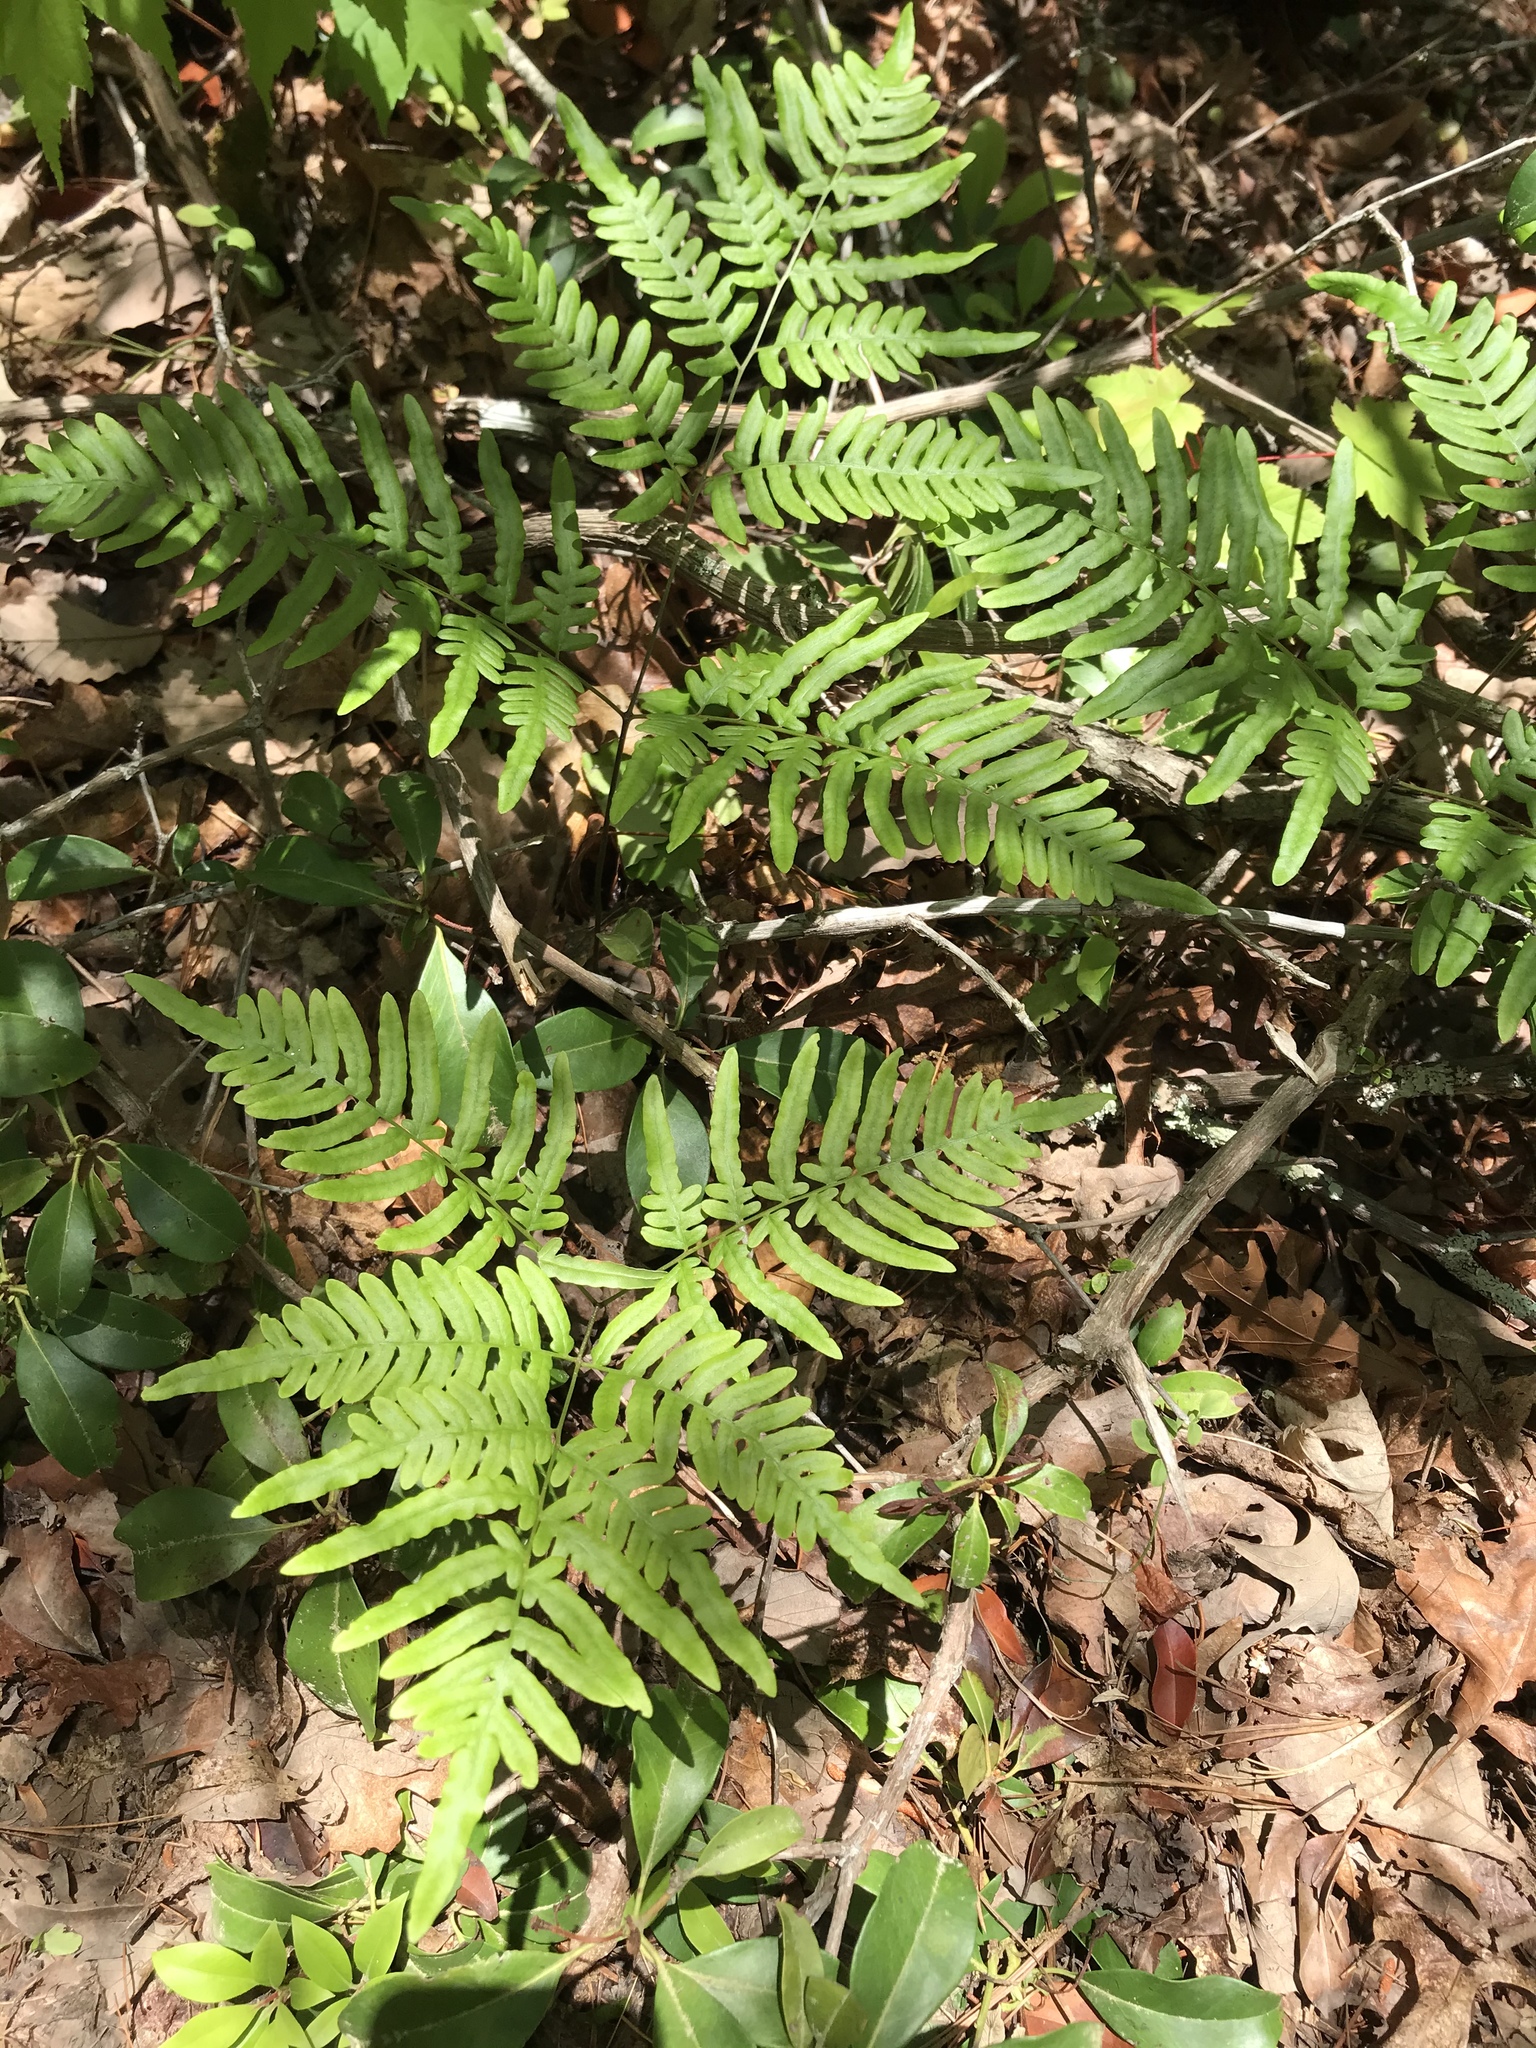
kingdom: Plantae
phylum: Tracheophyta
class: Polypodiopsida
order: Polypodiales
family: Dennstaedtiaceae
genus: Pteridium
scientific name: Pteridium aquilinum
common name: Bracken
